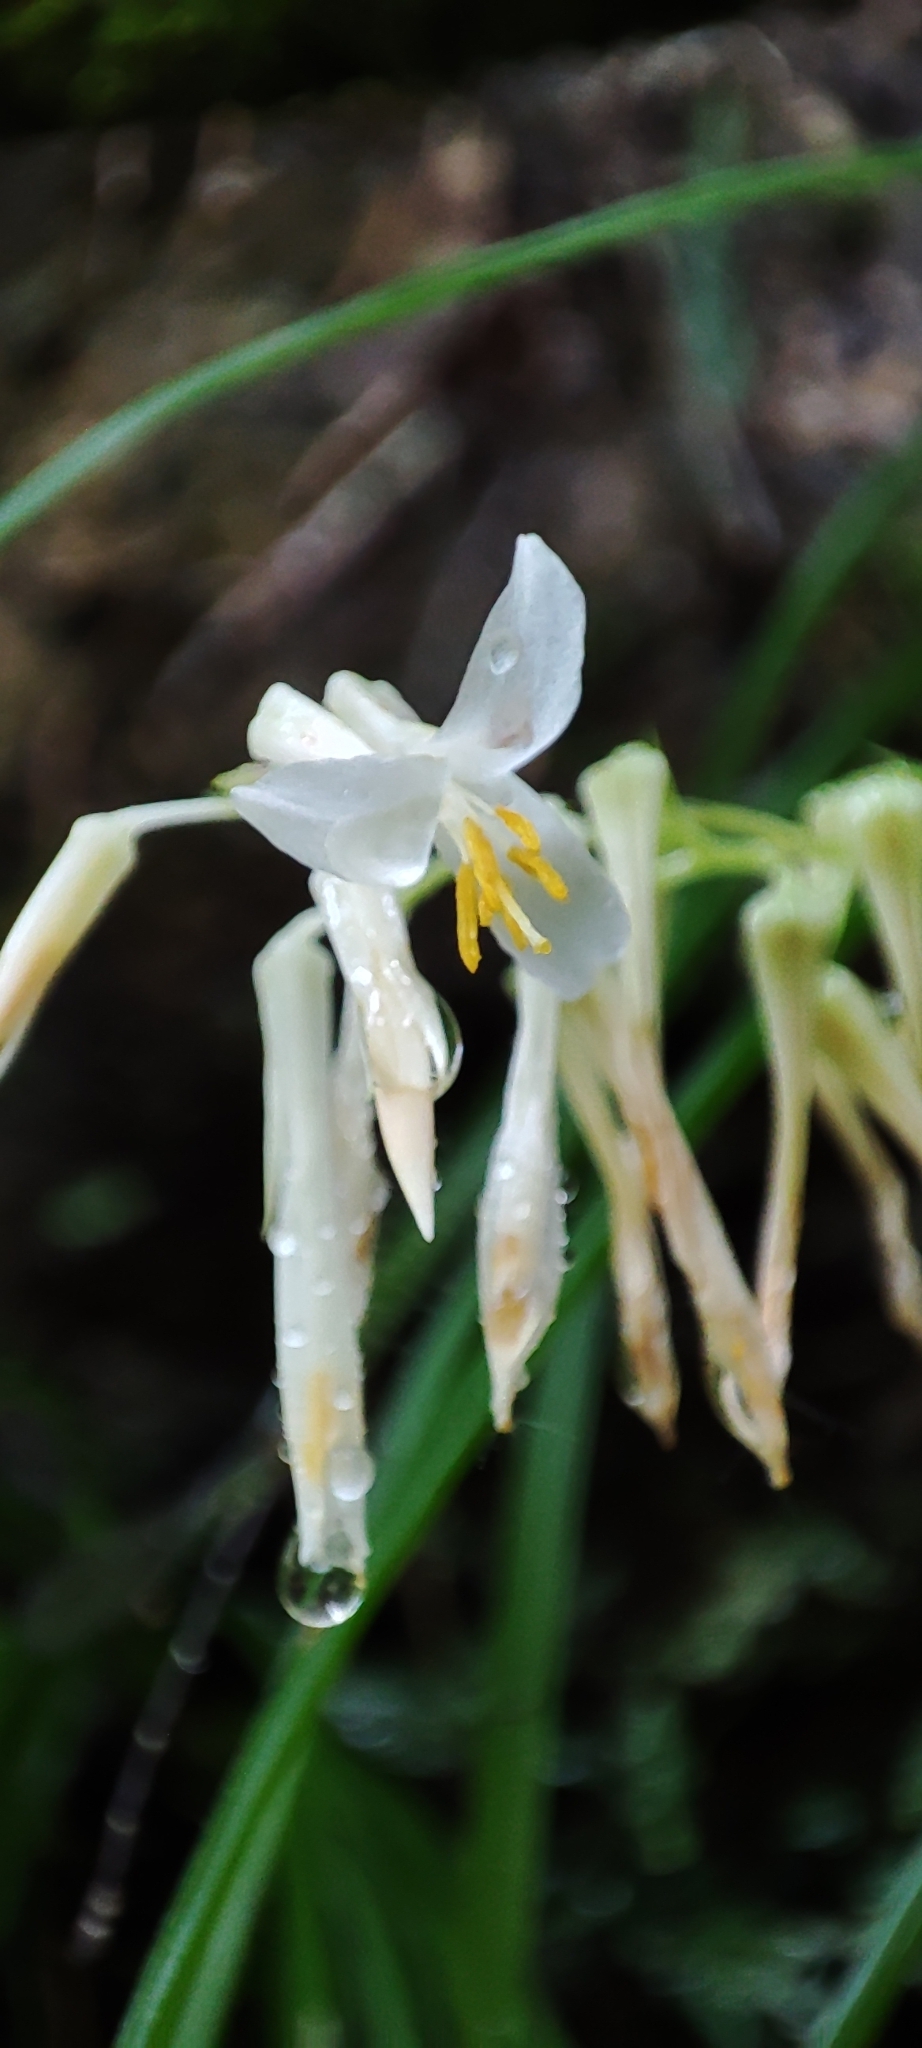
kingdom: Plantae
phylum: Tracheophyta
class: Liliopsida
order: Poales
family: Bromeliaceae
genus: Pitcairnia
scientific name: Pitcairnia singularis
